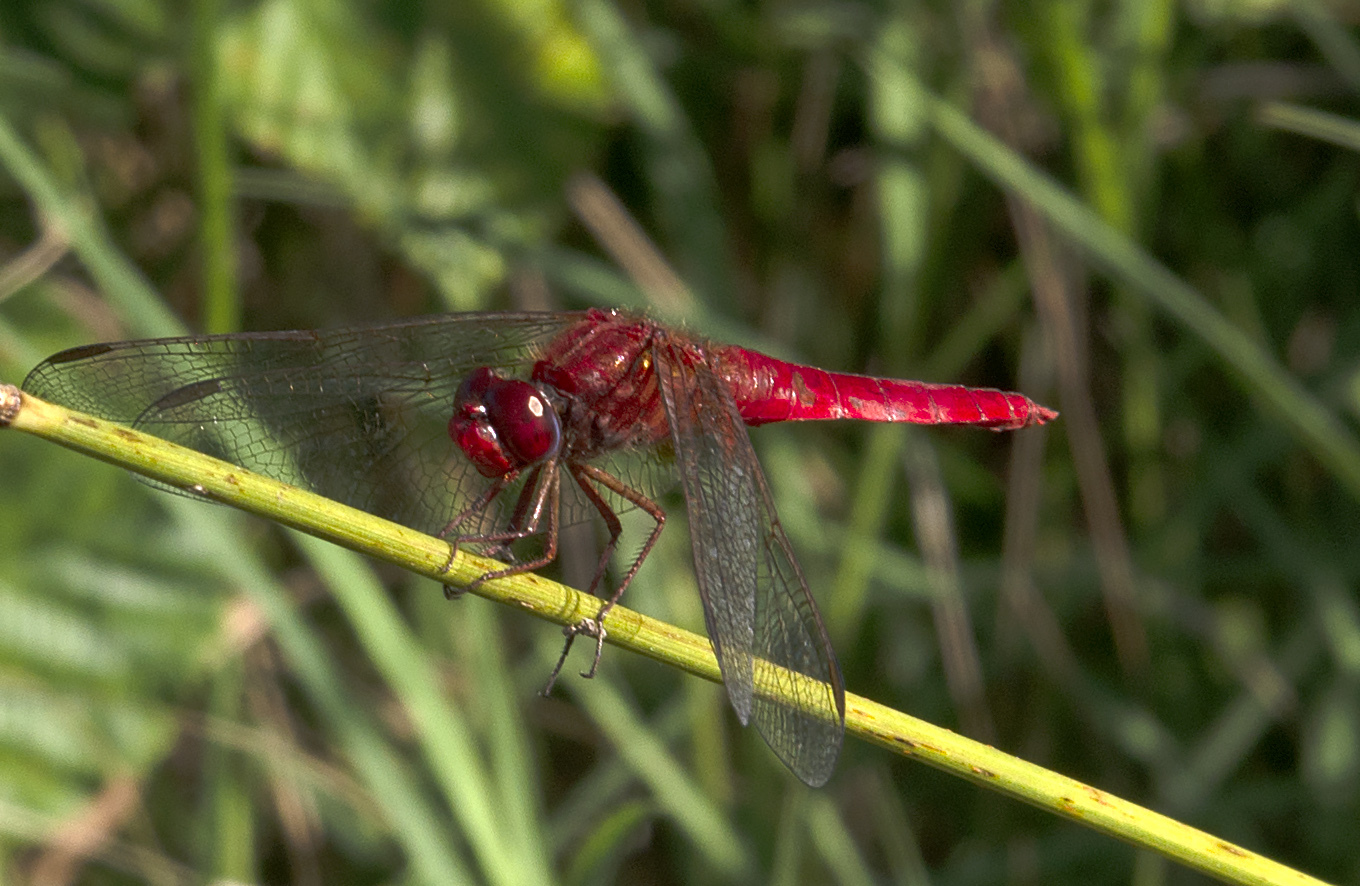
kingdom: Animalia
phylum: Arthropoda
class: Insecta
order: Odonata
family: Libellulidae
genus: Crocothemis
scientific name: Crocothemis erythraea
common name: Scarlet dragonfly
